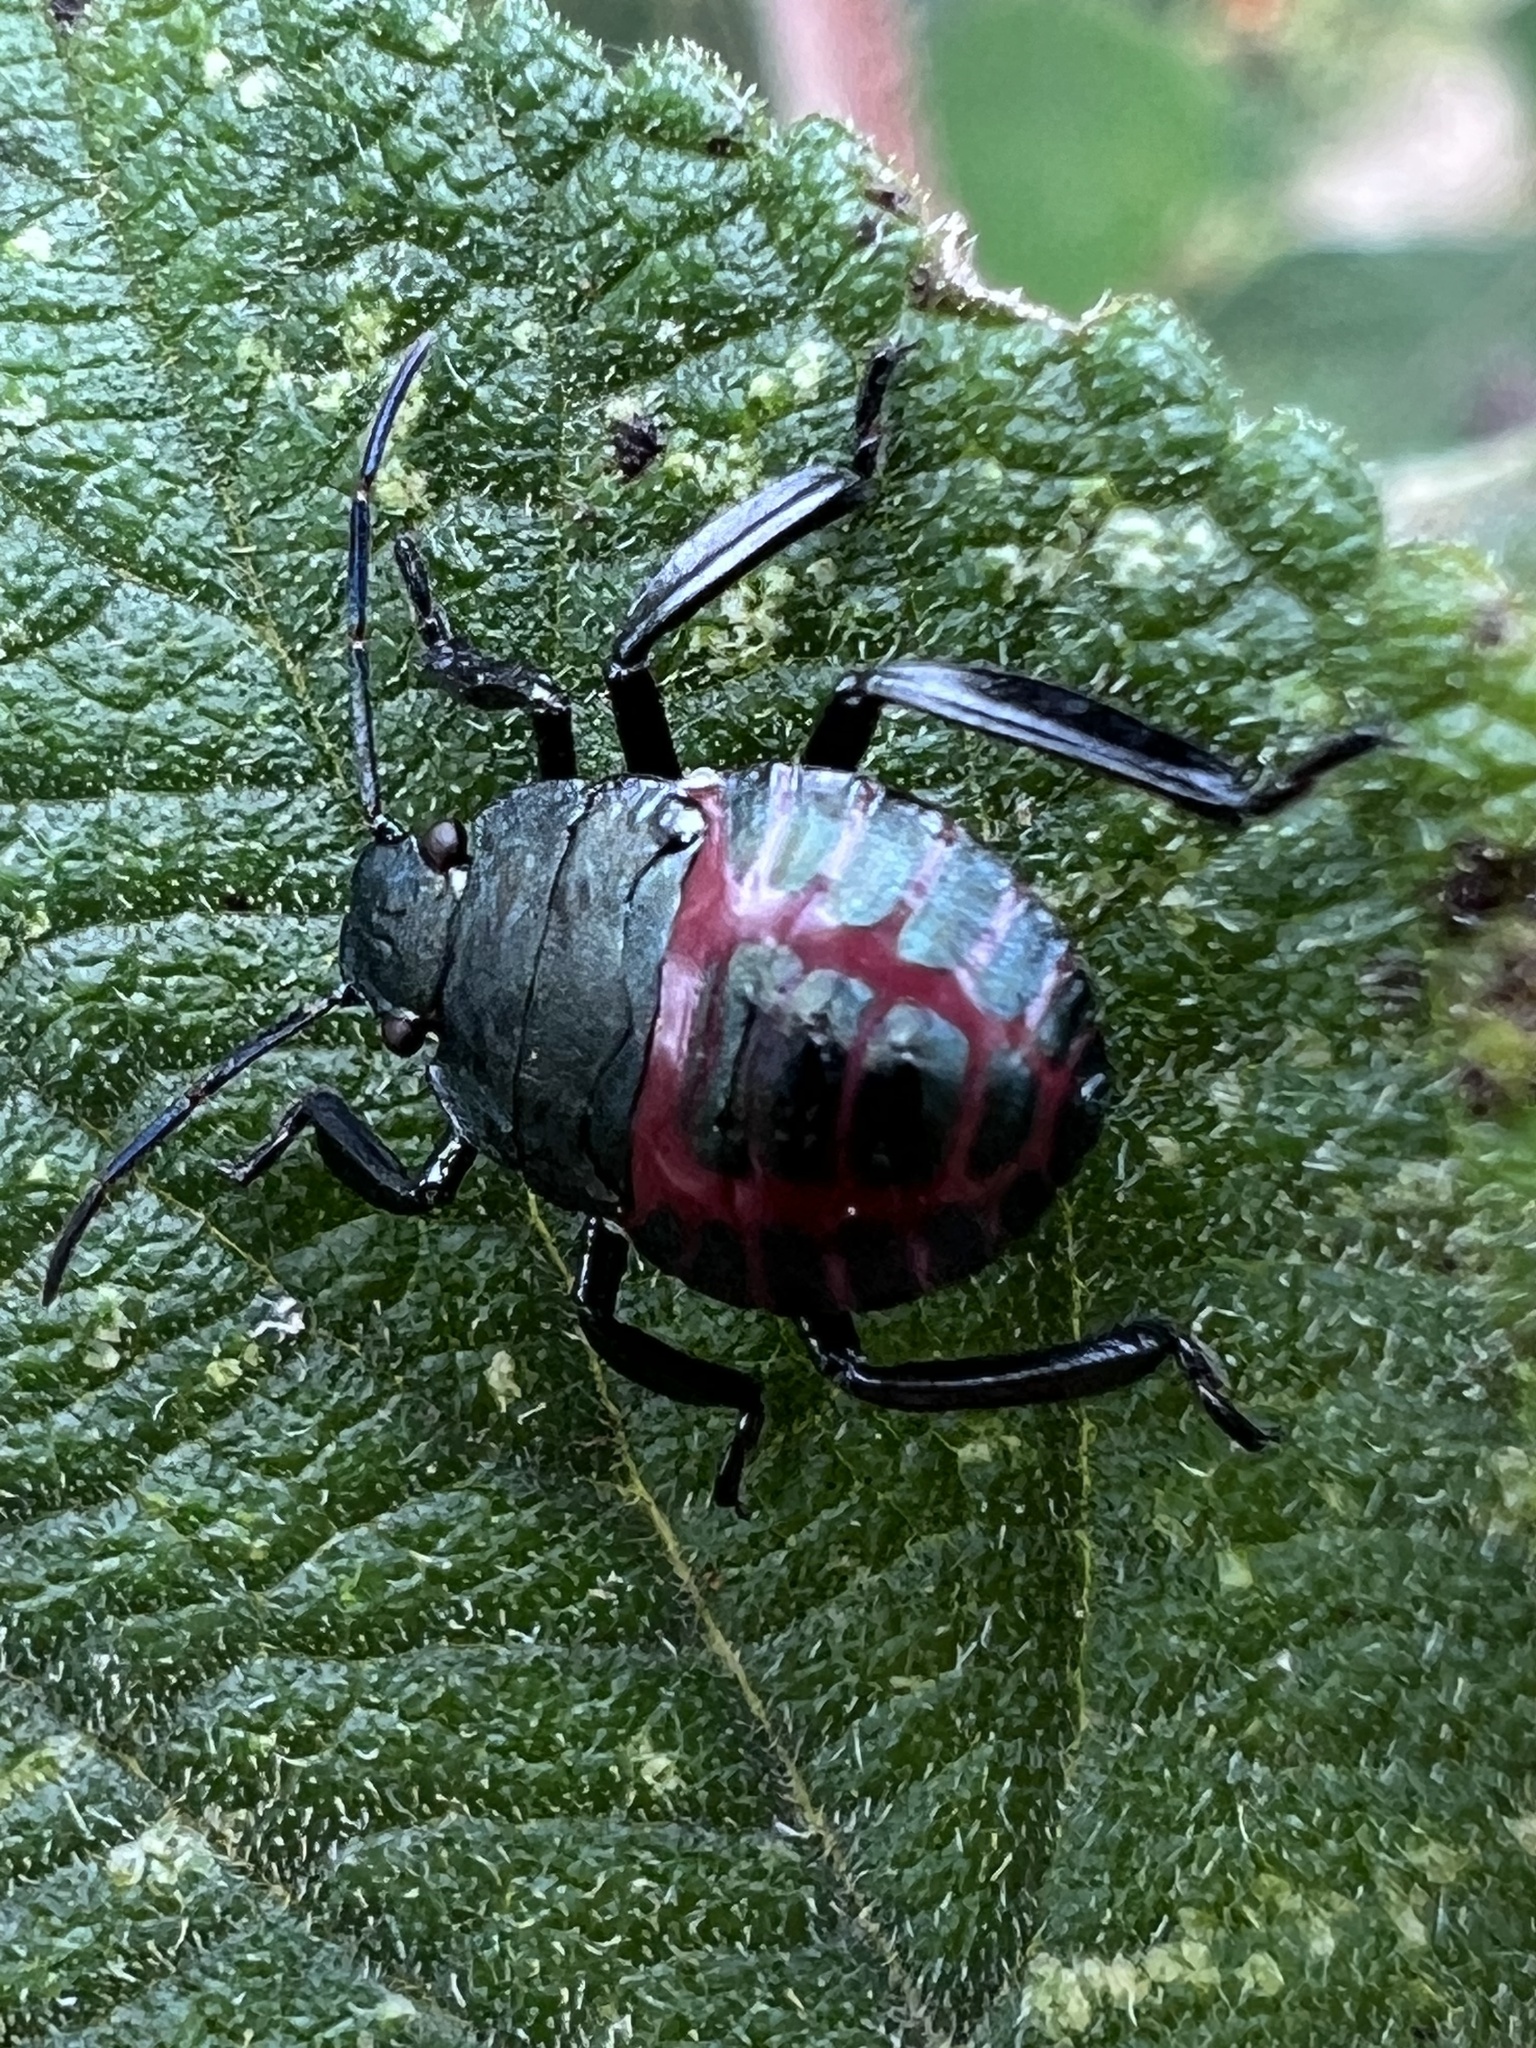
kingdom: Animalia
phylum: Arthropoda
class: Insecta
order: Hemiptera
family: Pentatomidae
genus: Pellaea
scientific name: Pellaea stictica
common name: Stink bug
